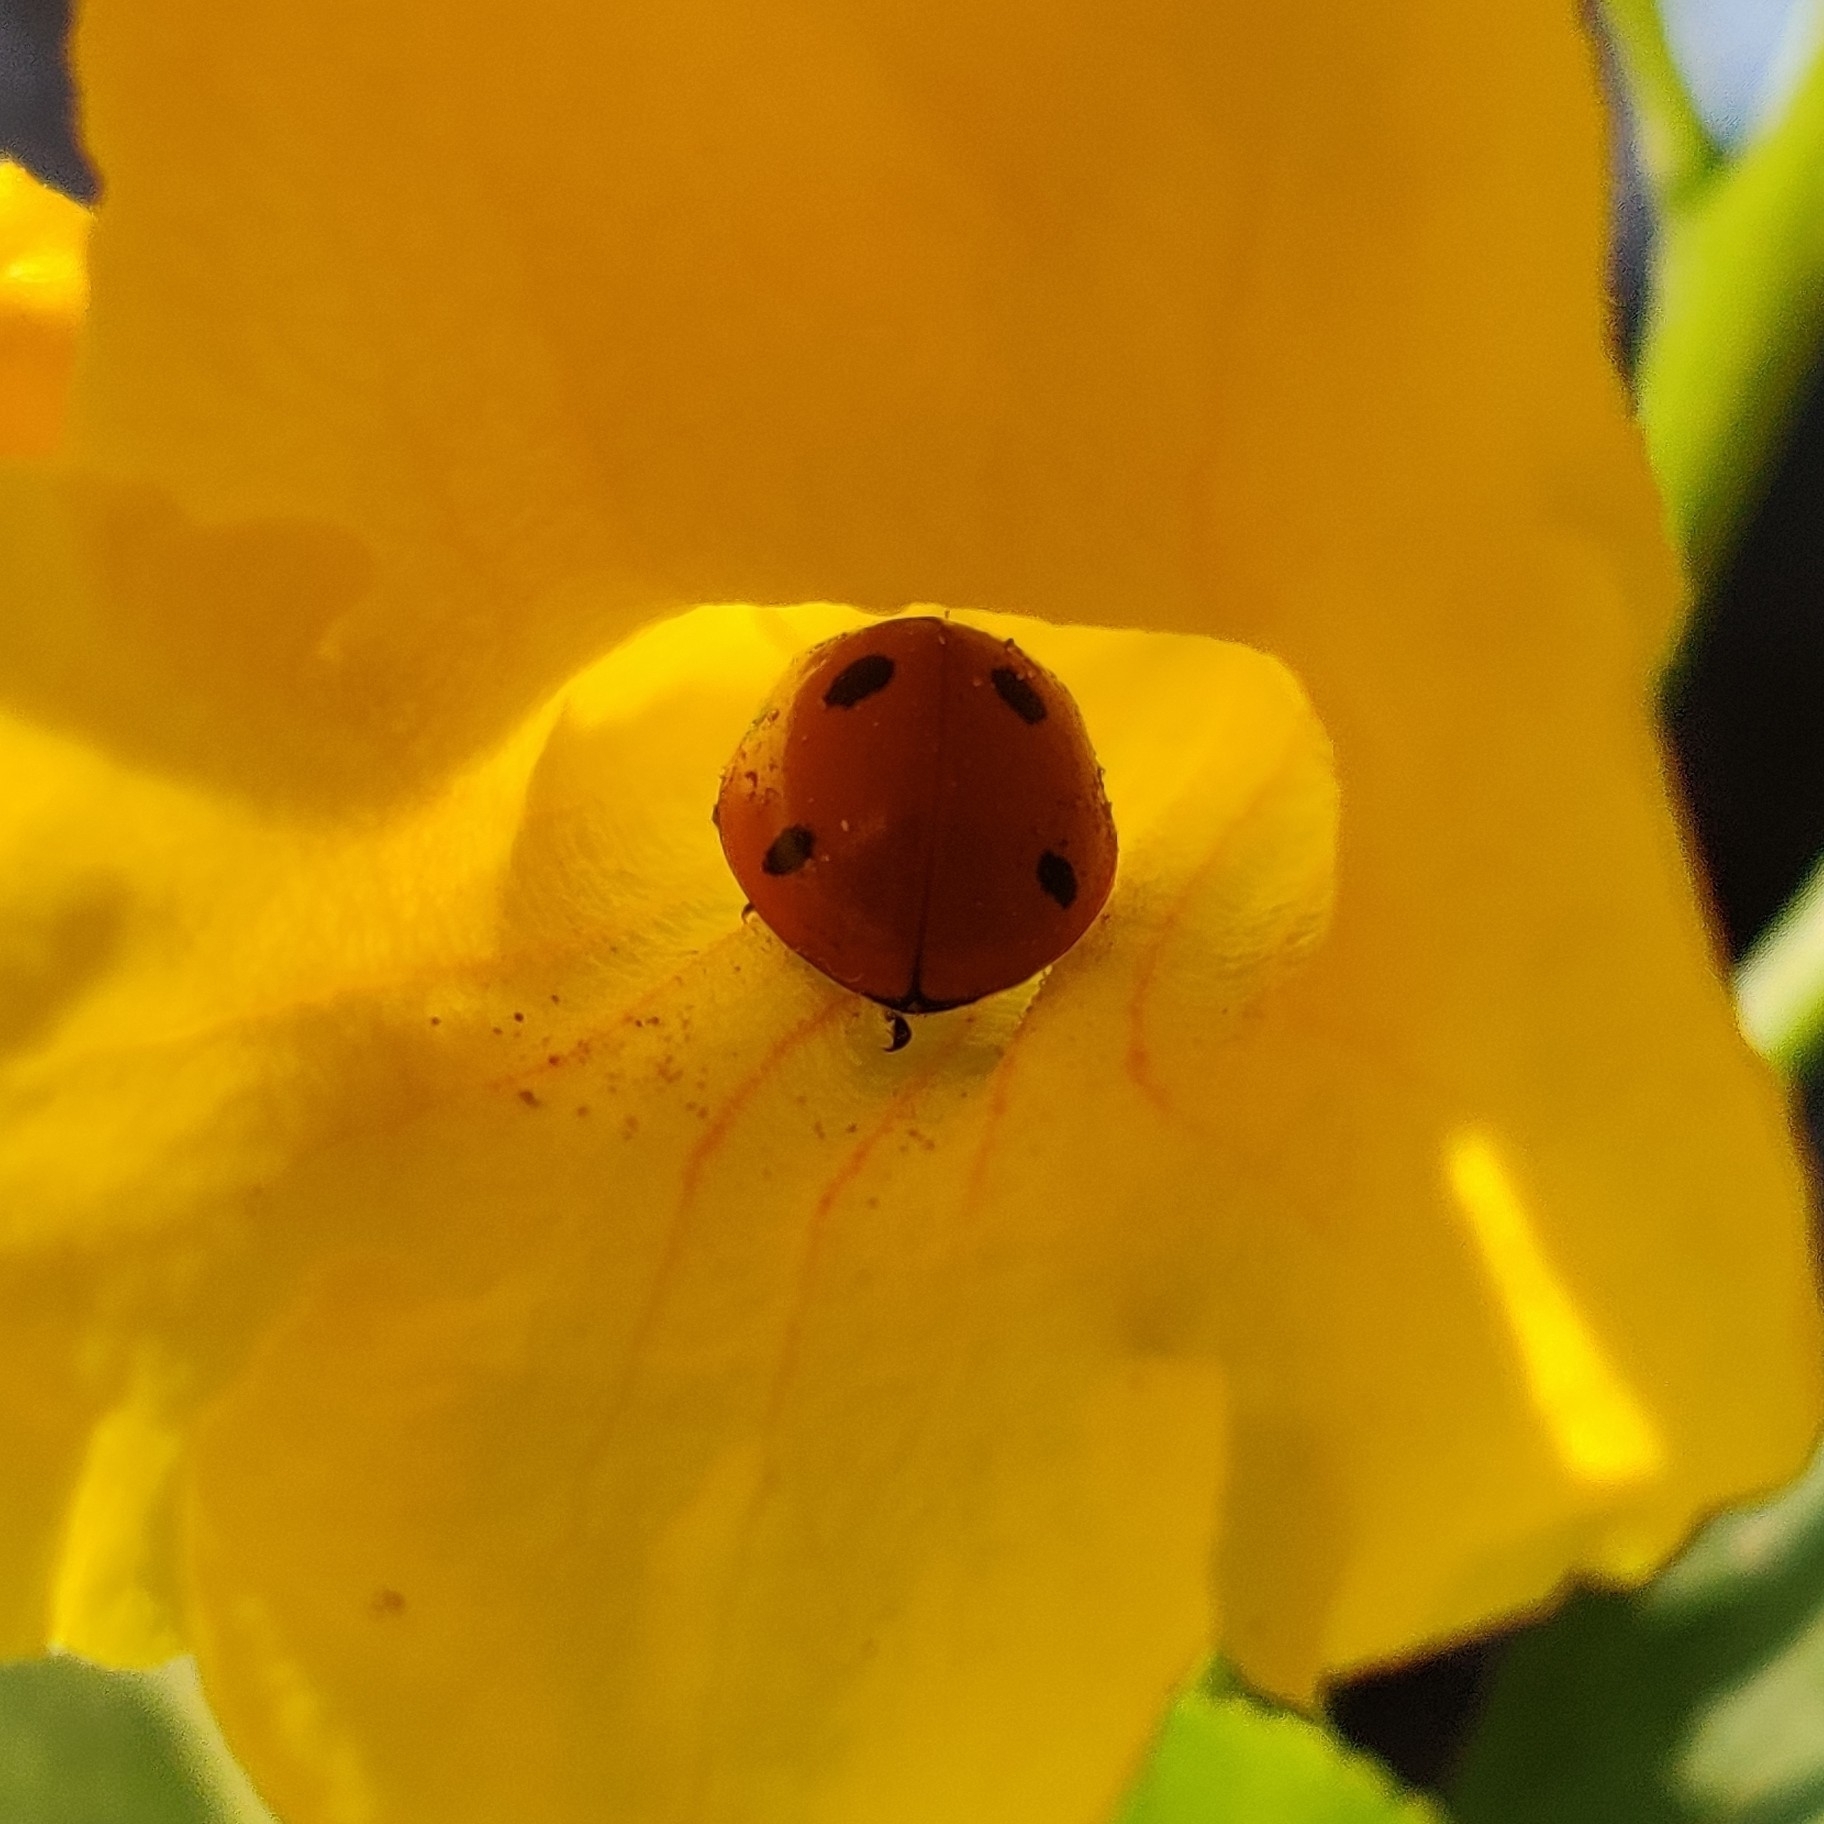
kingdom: Animalia
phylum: Arthropoda
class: Insecta
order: Coleoptera
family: Coccinellidae
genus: Coccinella
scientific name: Coccinella septempunctata
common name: Sevenspotted lady beetle
